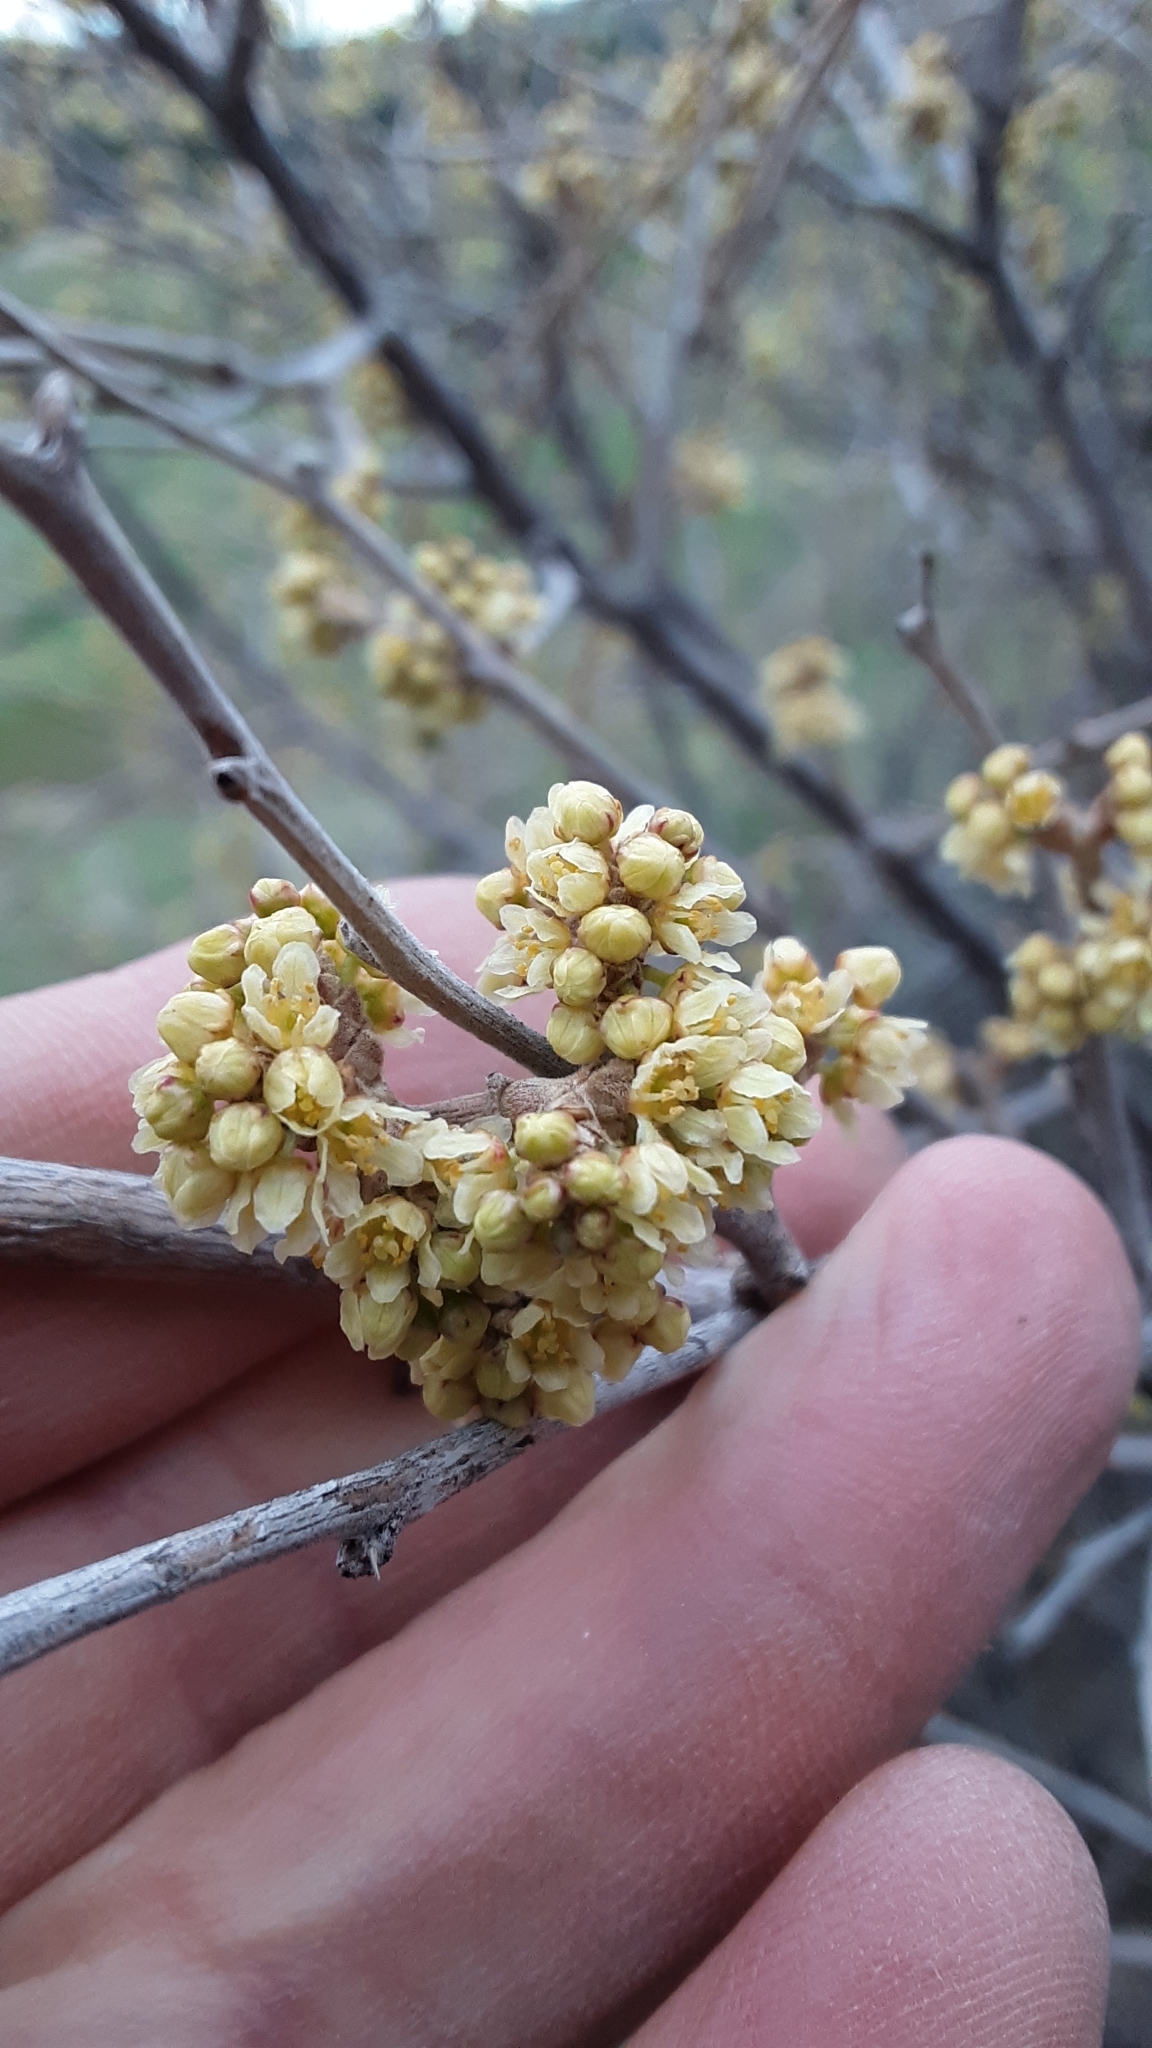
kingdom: Plantae
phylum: Tracheophyta
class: Magnoliopsida
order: Sapindales
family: Anacardiaceae
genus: Rhus
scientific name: Rhus aromatica
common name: Aromatic sumac
